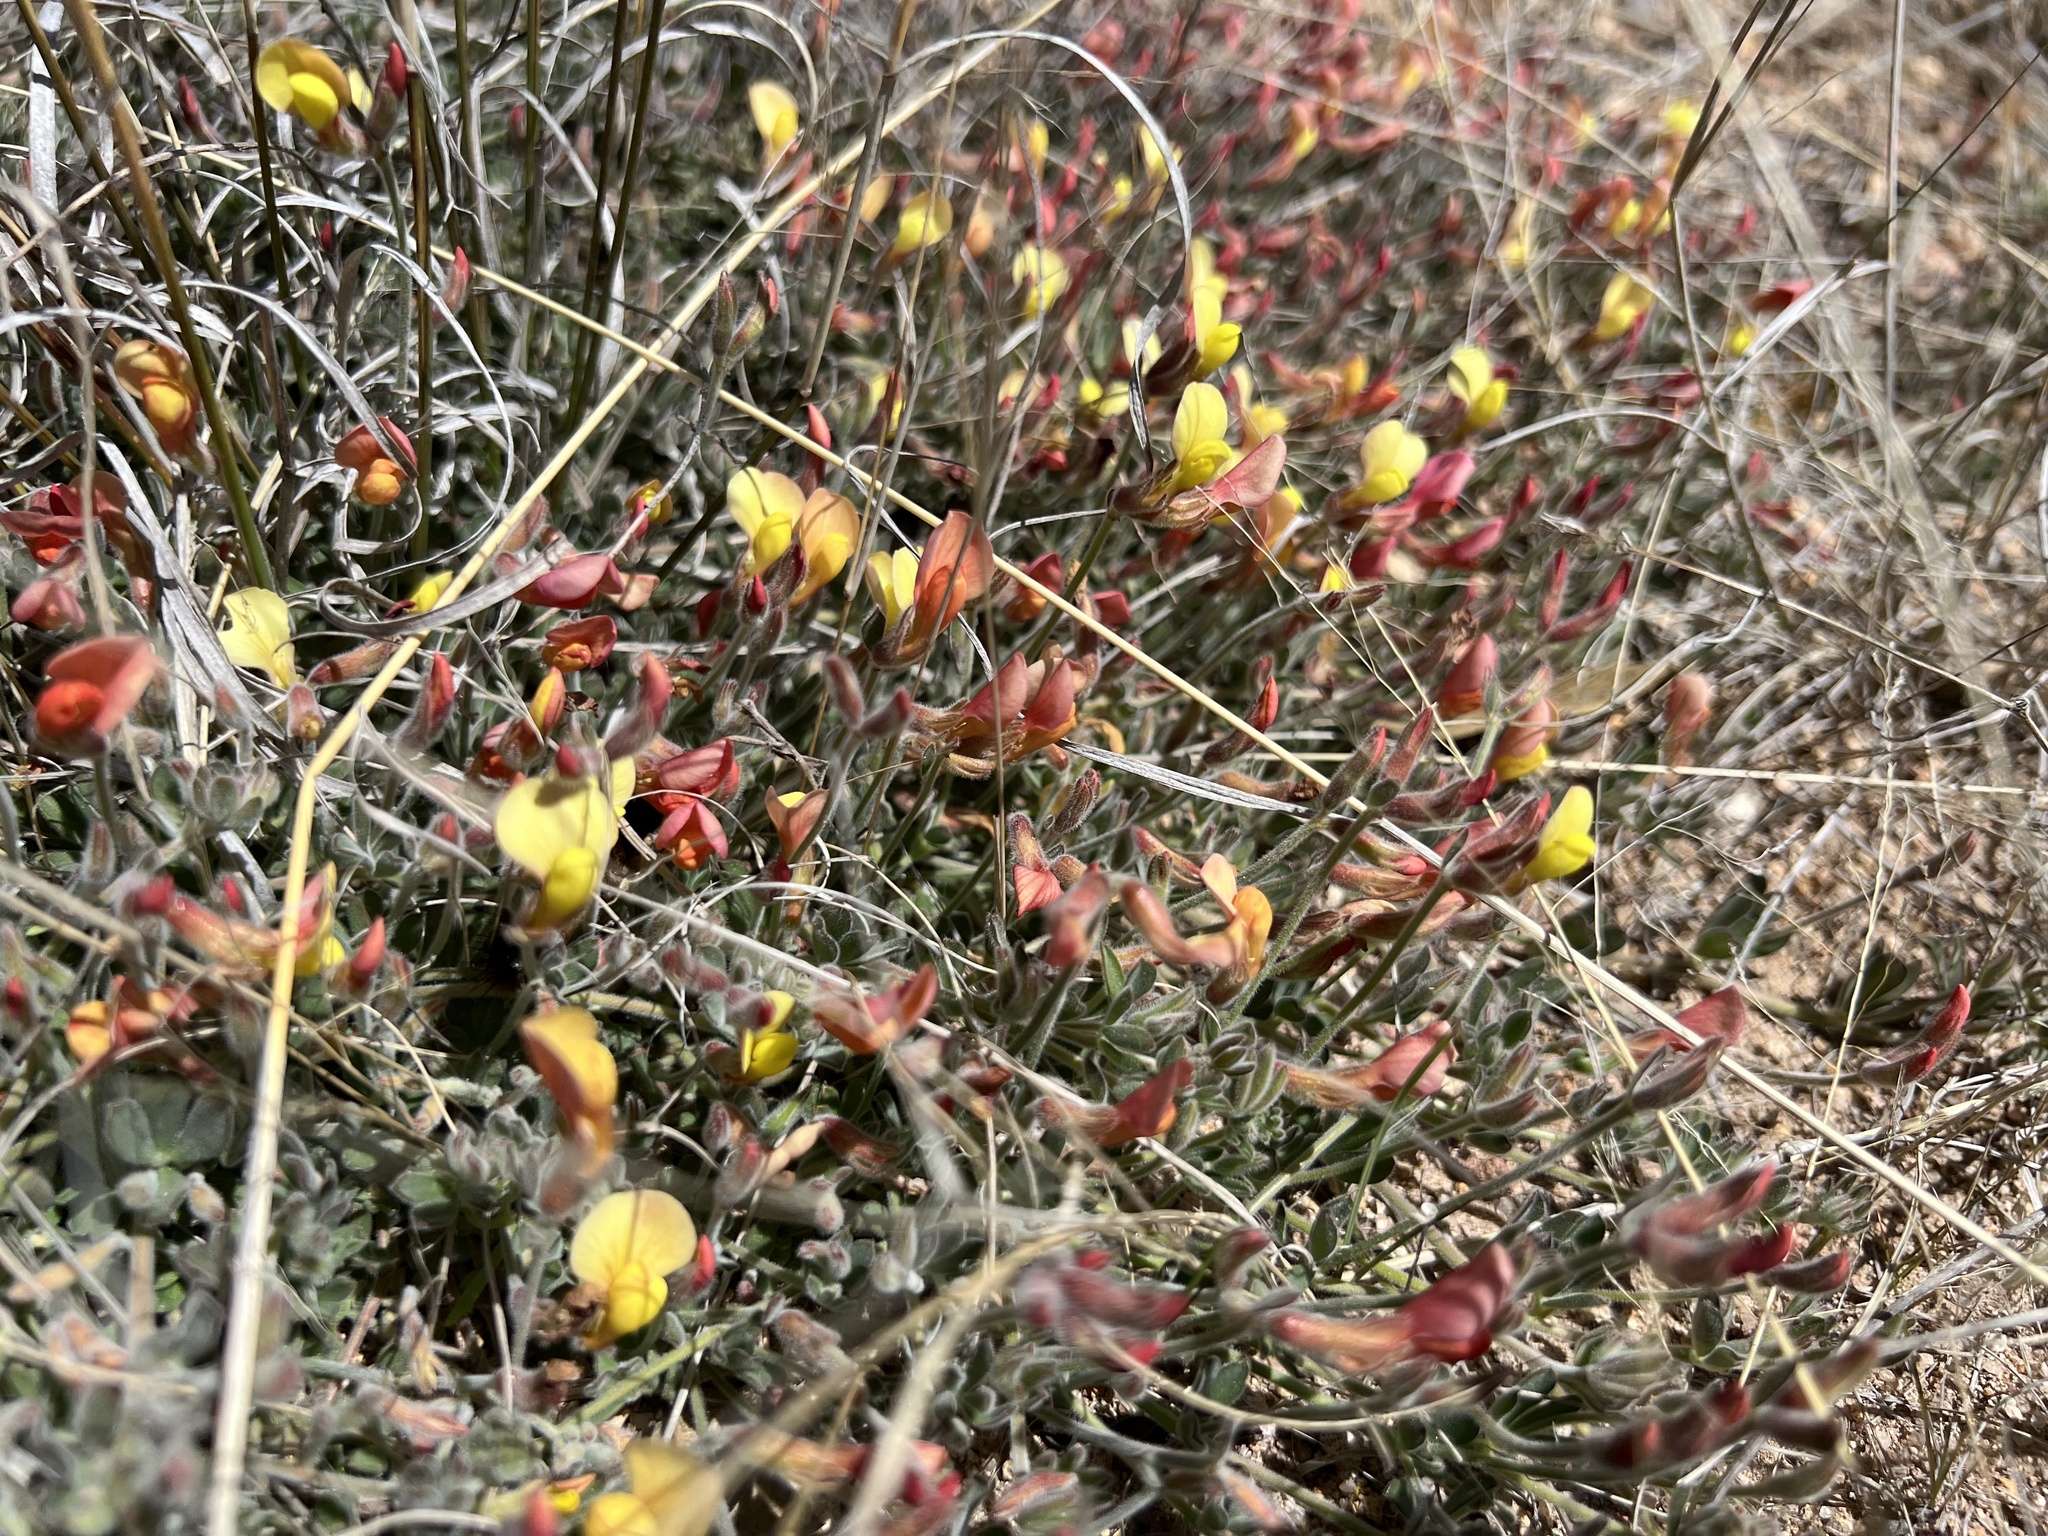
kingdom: Plantae
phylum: Tracheophyta
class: Magnoliopsida
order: Fabales
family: Fabaceae
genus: Acmispon
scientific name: Acmispon neomexicanus
